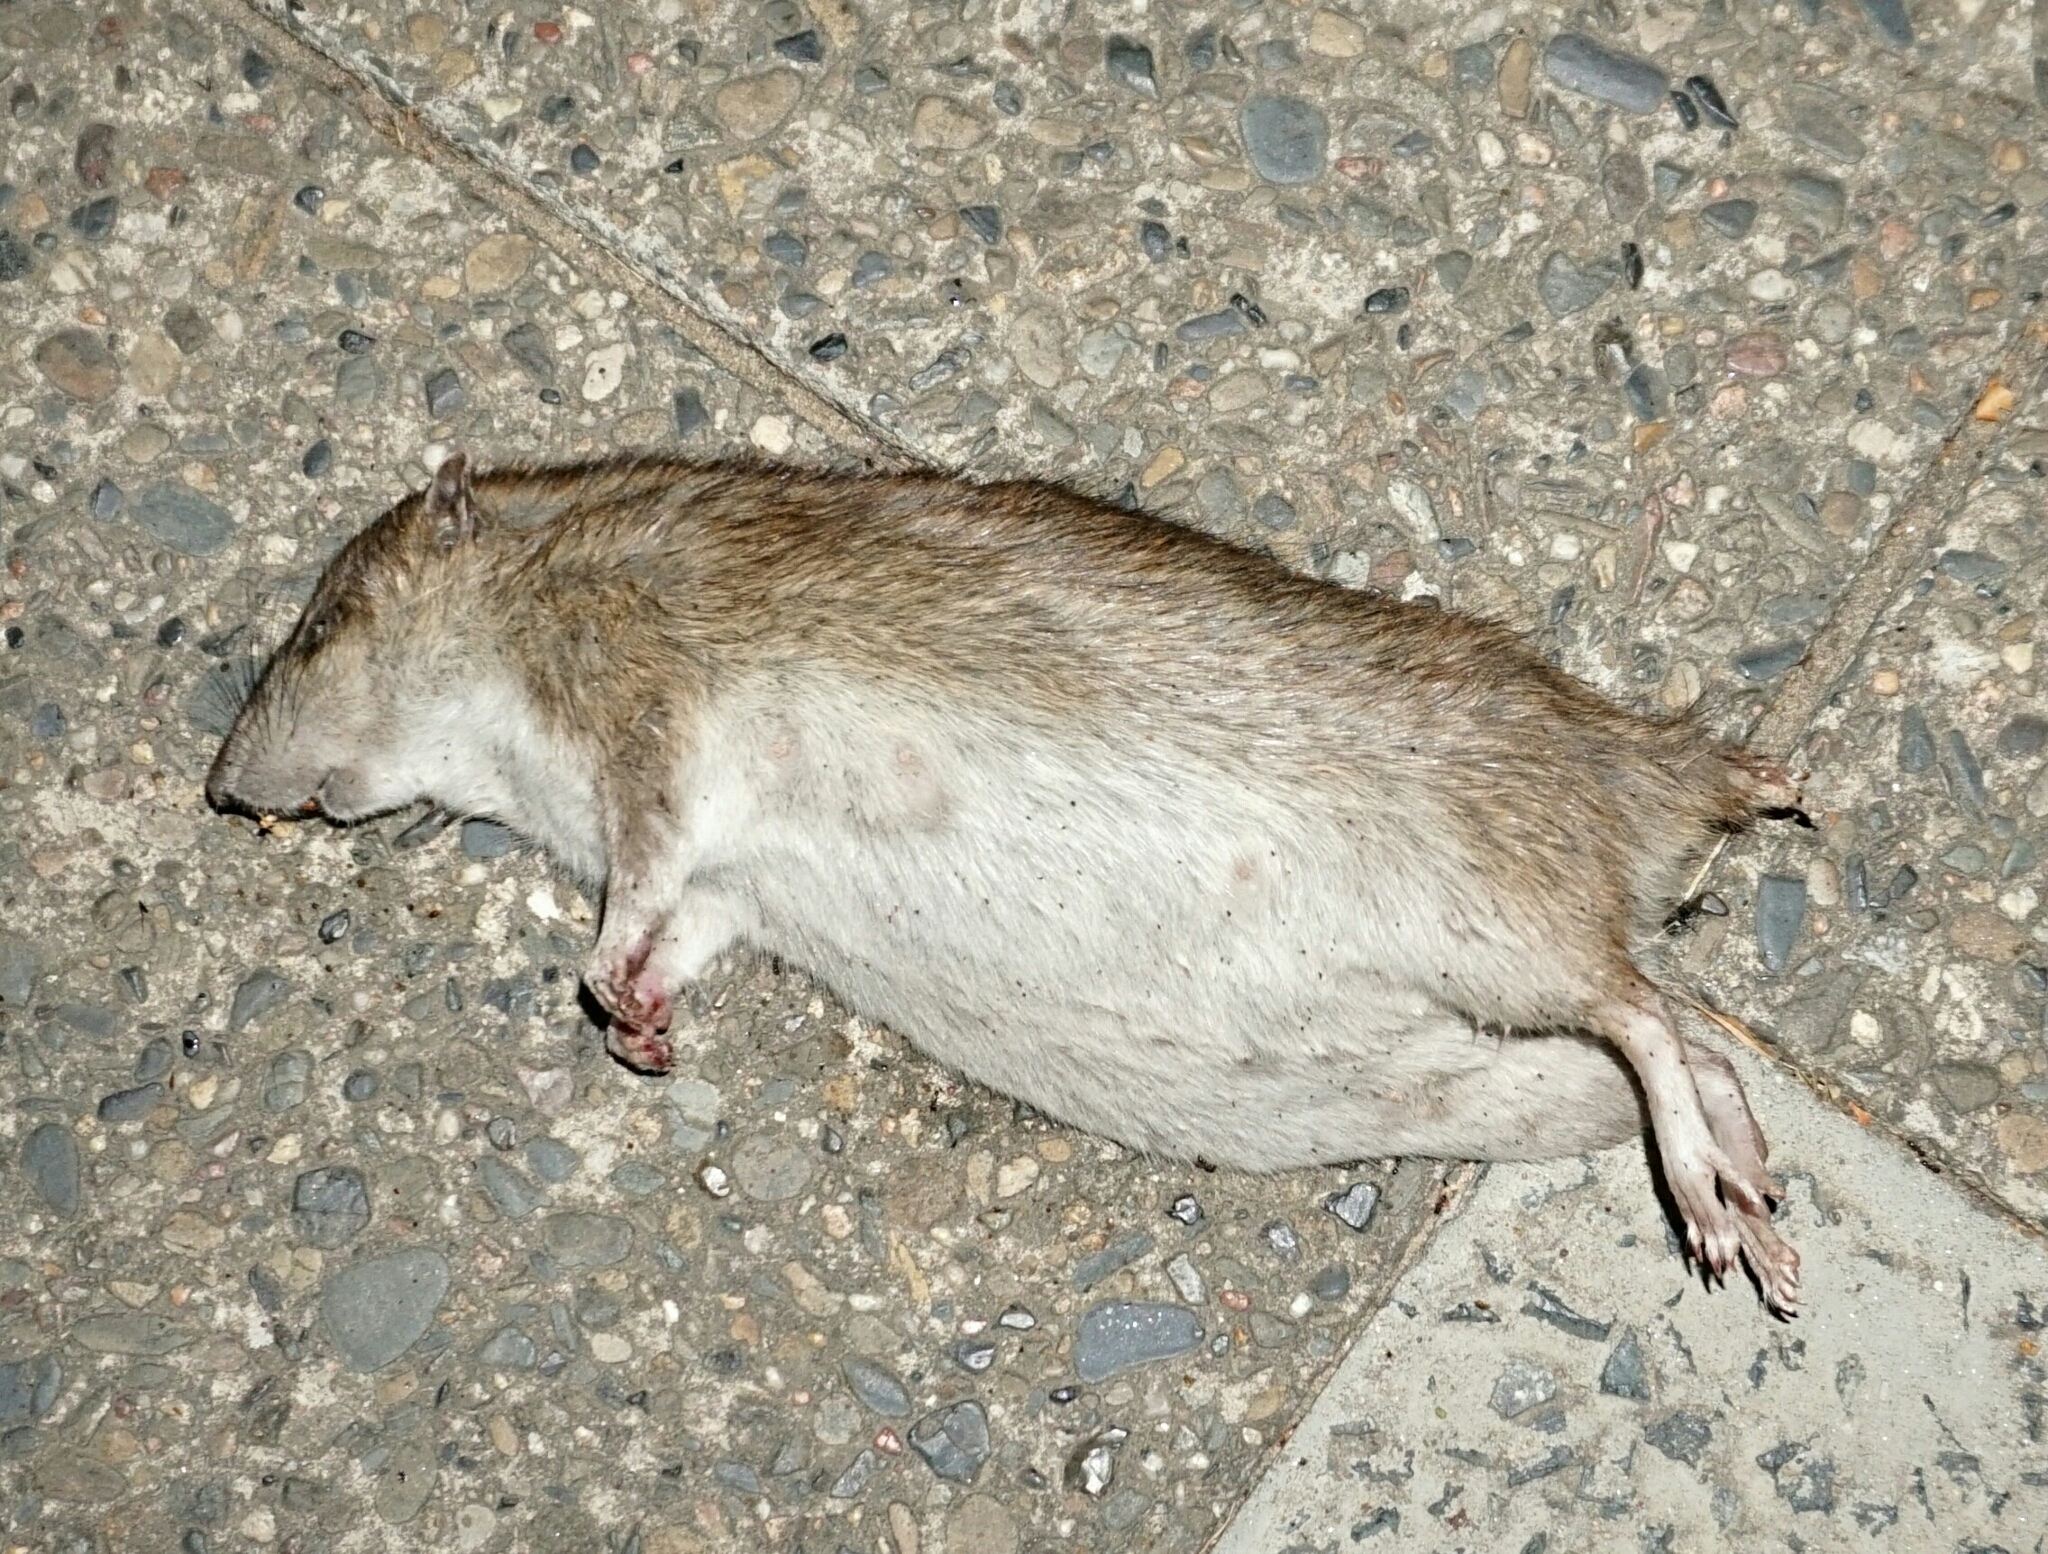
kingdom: Animalia
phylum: Chordata
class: Mammalia
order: Rodentia
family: Muridae
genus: Rattus
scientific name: Rattus norvegicus
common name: Brown rat
